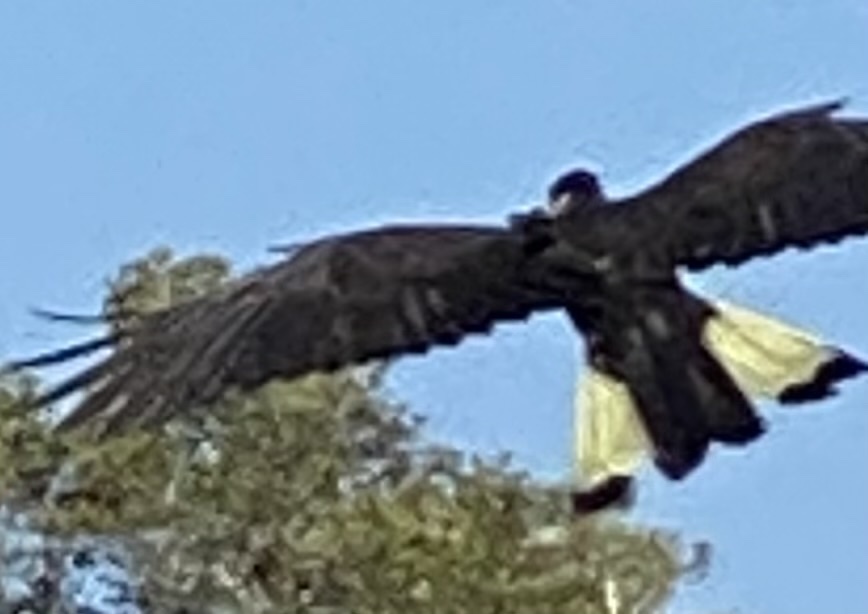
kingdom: Animalia
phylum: Chordata
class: Aves
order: Psittaciformes
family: Cacatuidae
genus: Zanda
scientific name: Zanda funerea
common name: Yellow-tailed black-cockatoo
